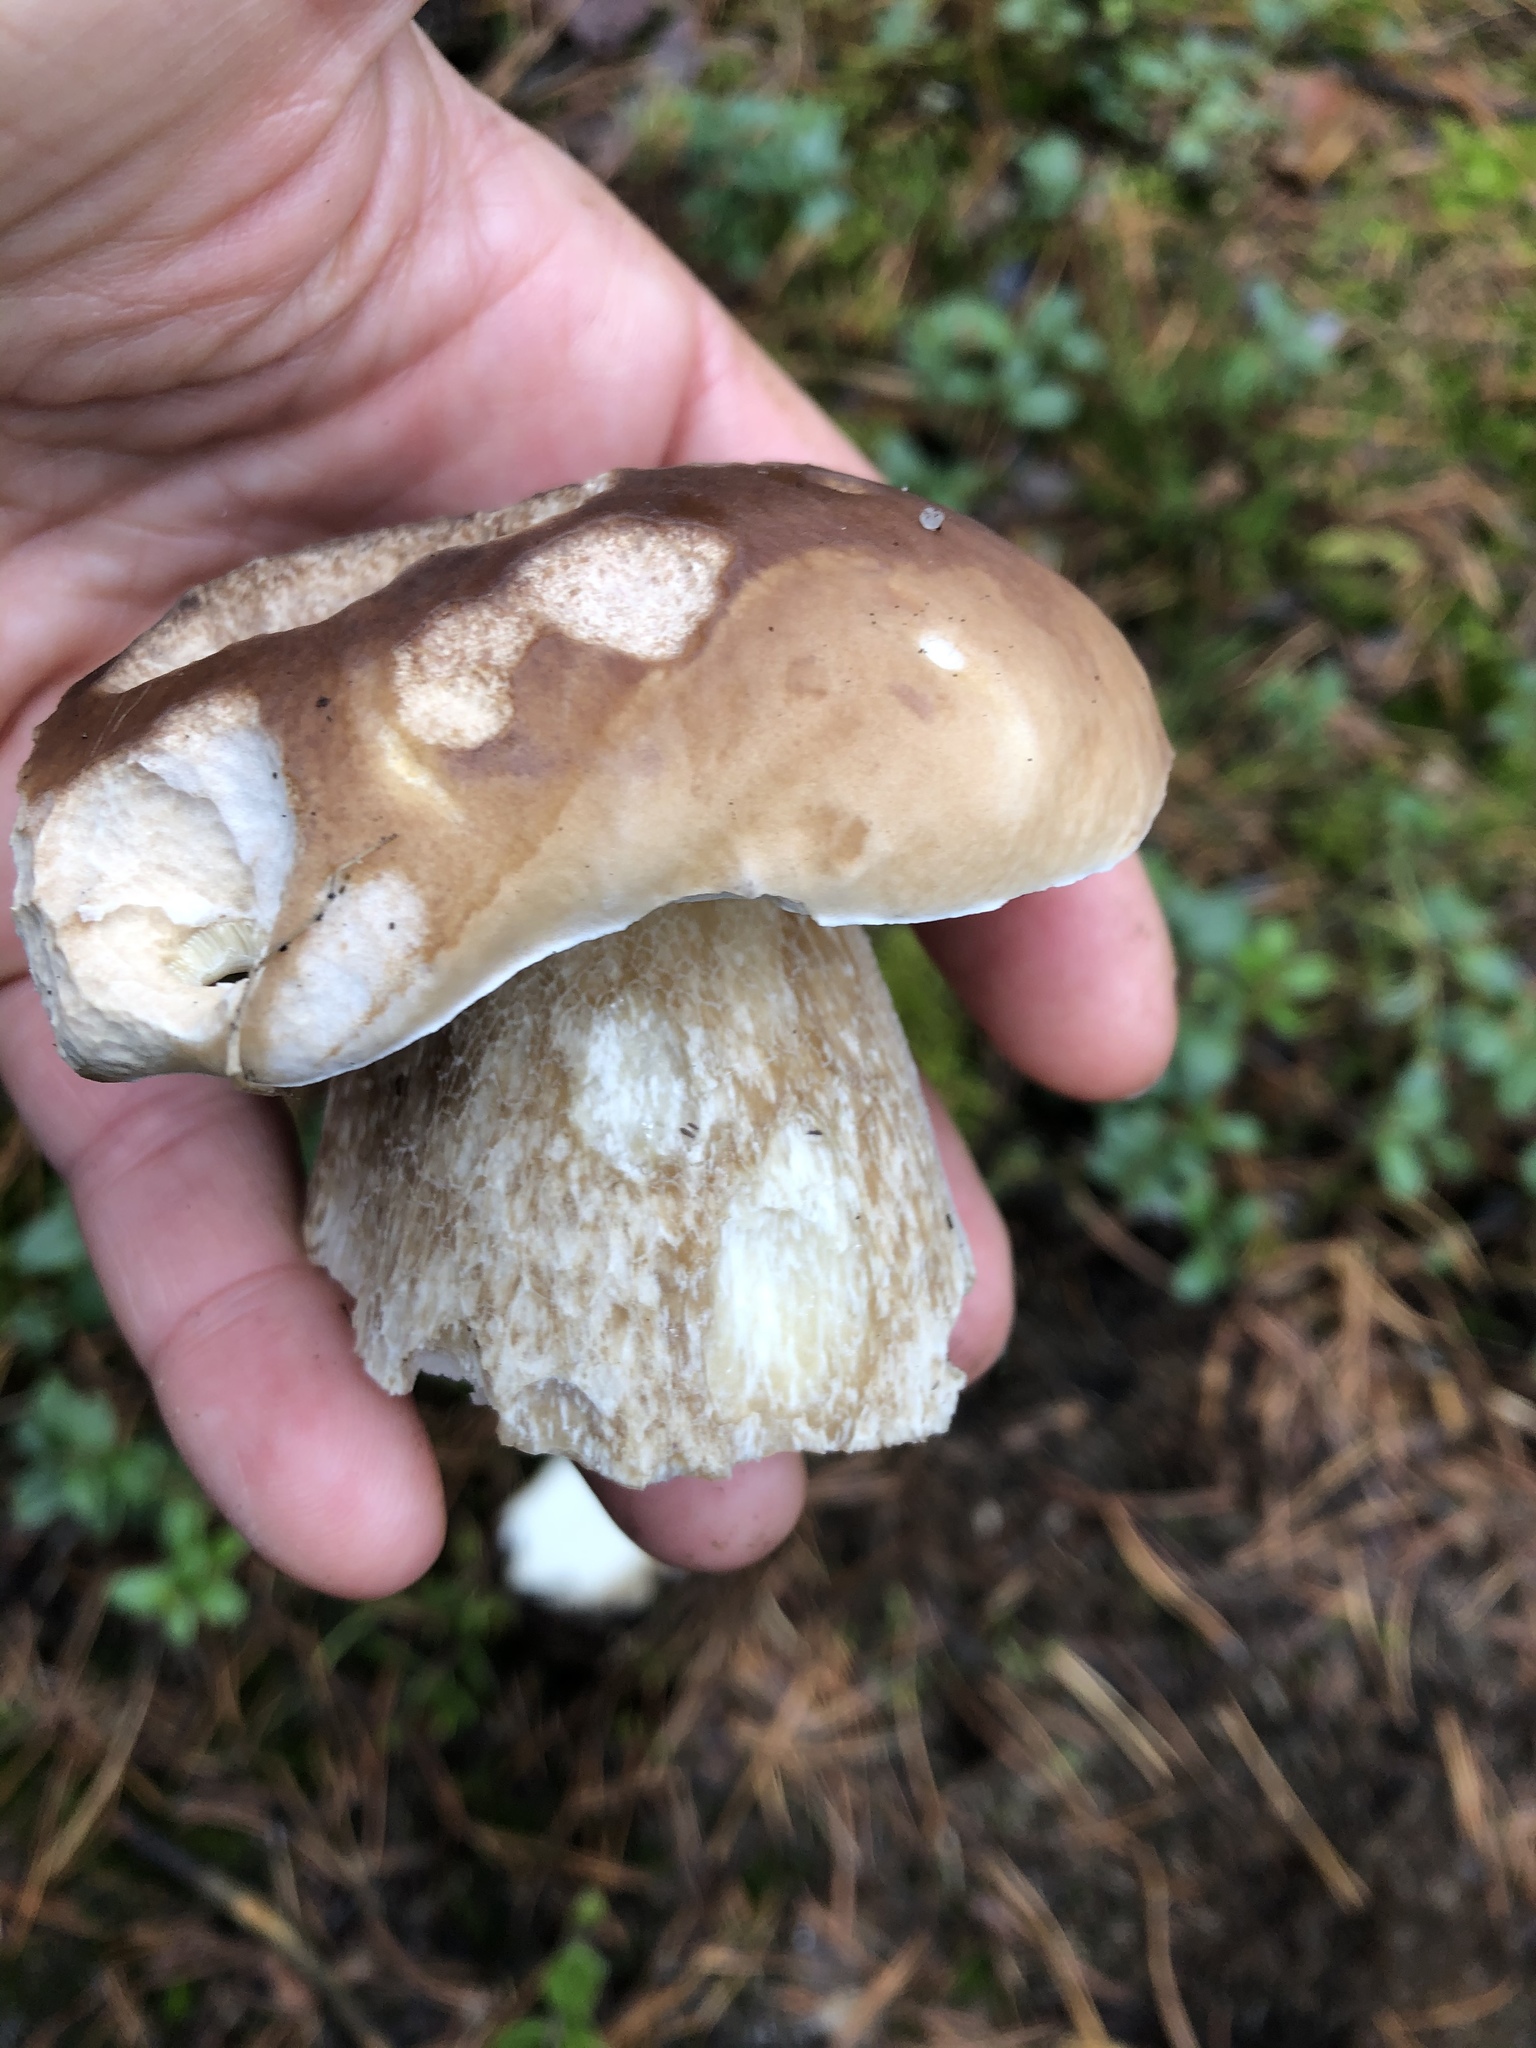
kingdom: Fungi
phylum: Basidiomycota
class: Agaricomycetes
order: Boletales
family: Boletaceae
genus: Boletus
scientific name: Boletus edulis
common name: Cep
